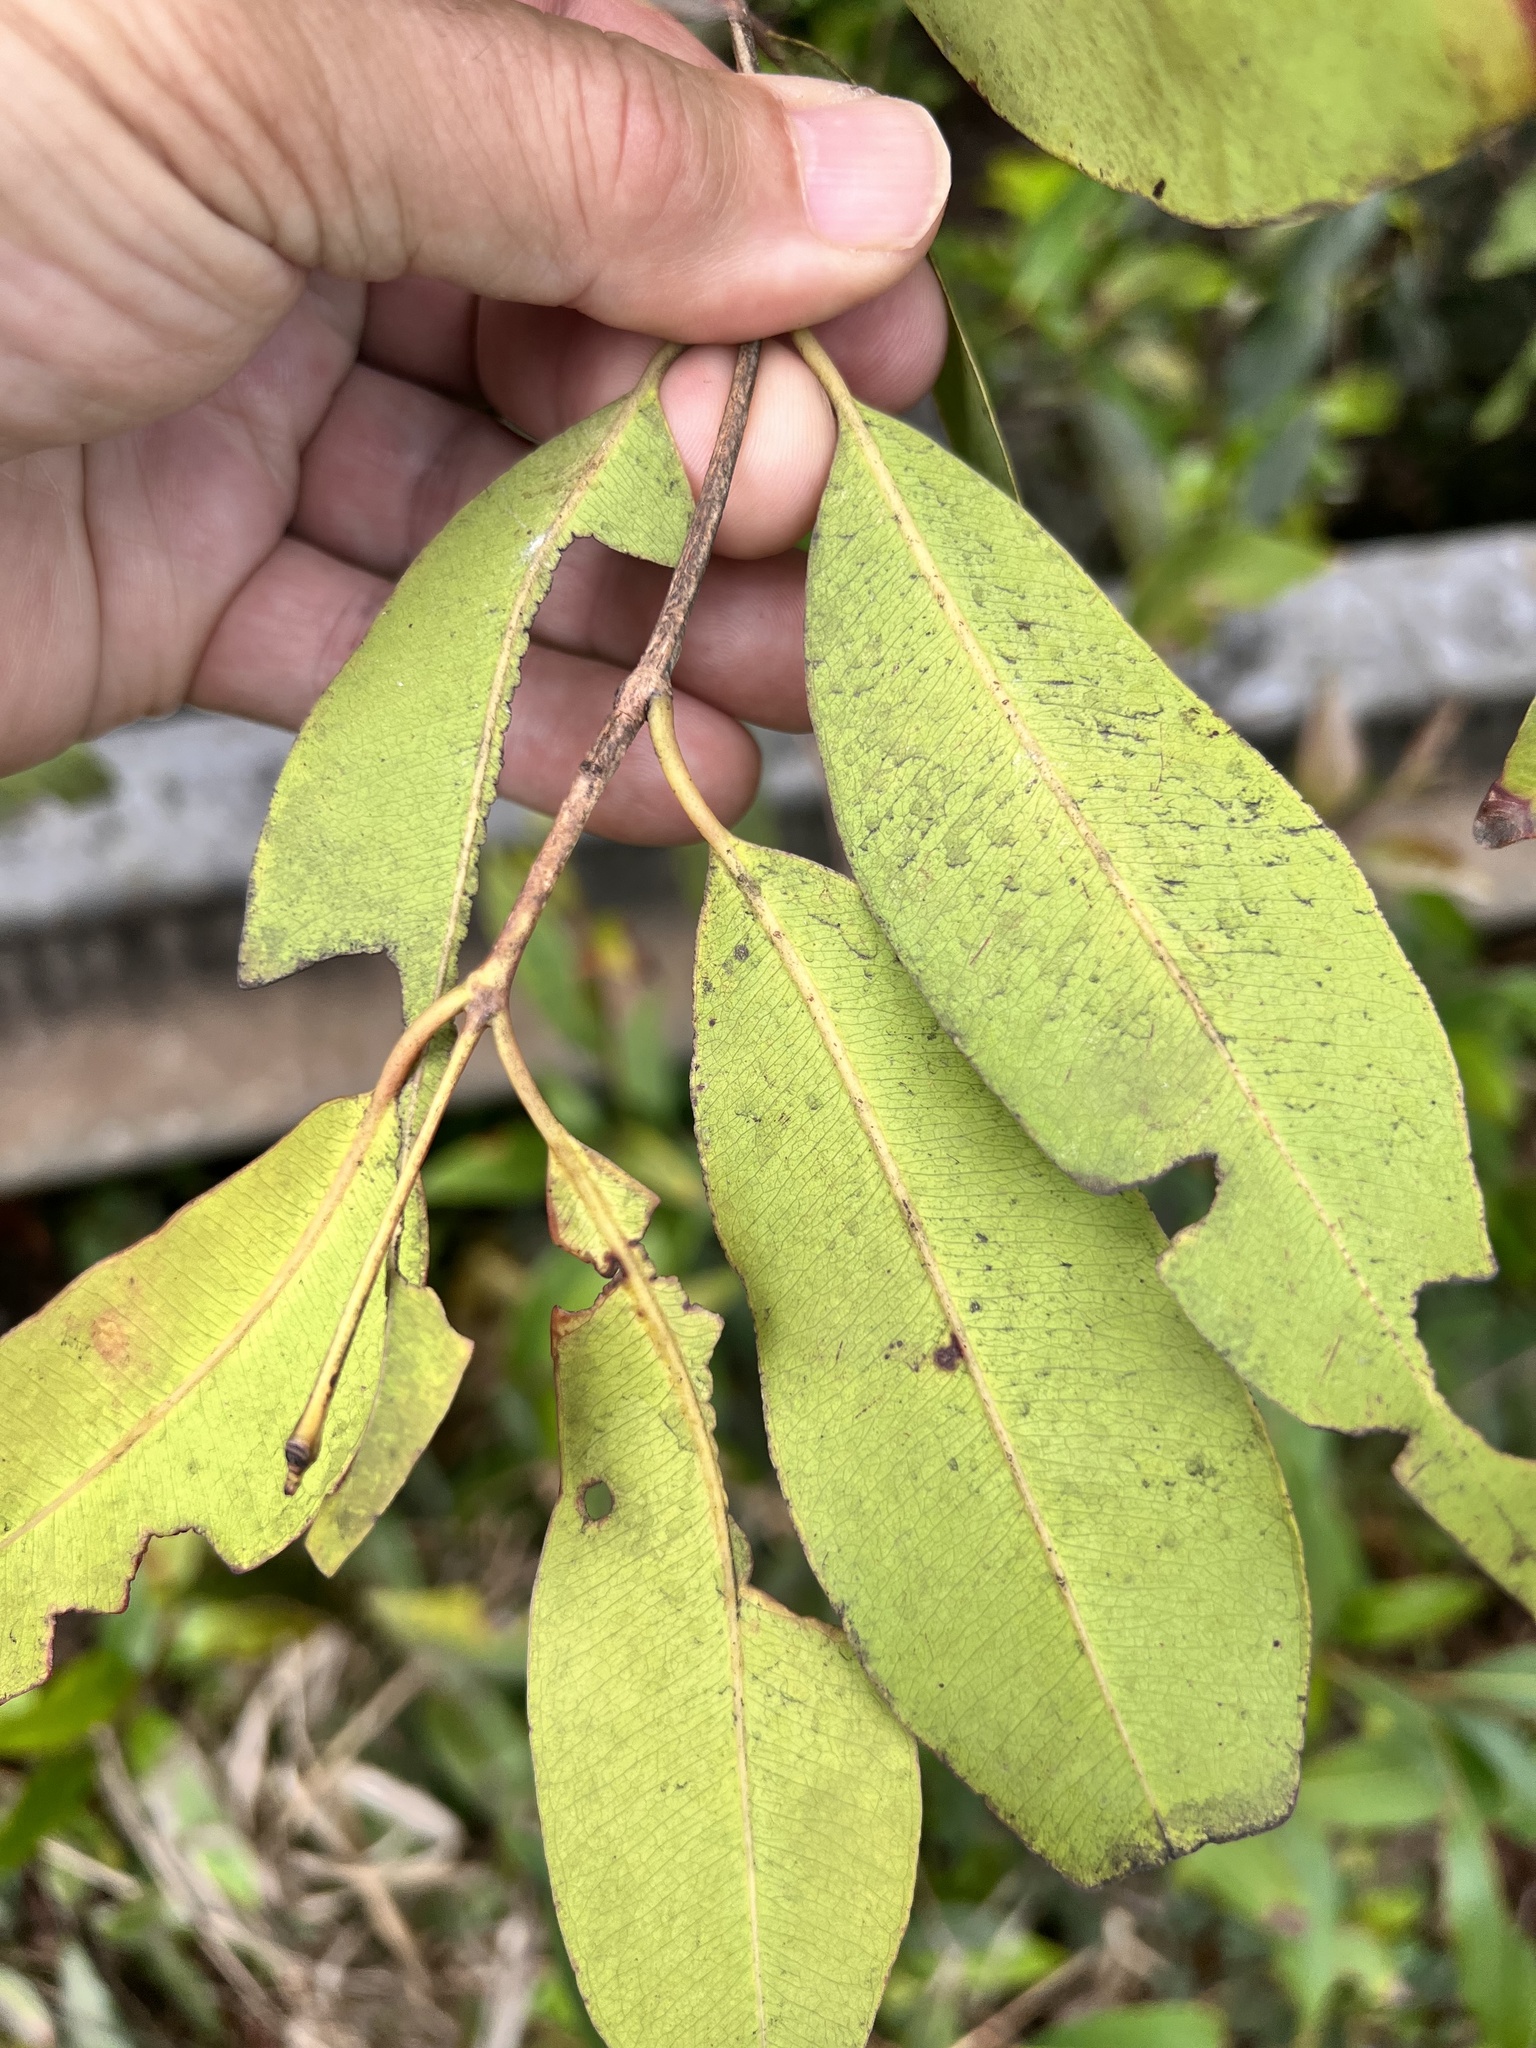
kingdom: Plantae
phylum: Tracheophyta
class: Magnoliopsida
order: Myrtales
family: Myrtaceae
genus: Syzygium
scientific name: Syzygium cumini
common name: Java plum
